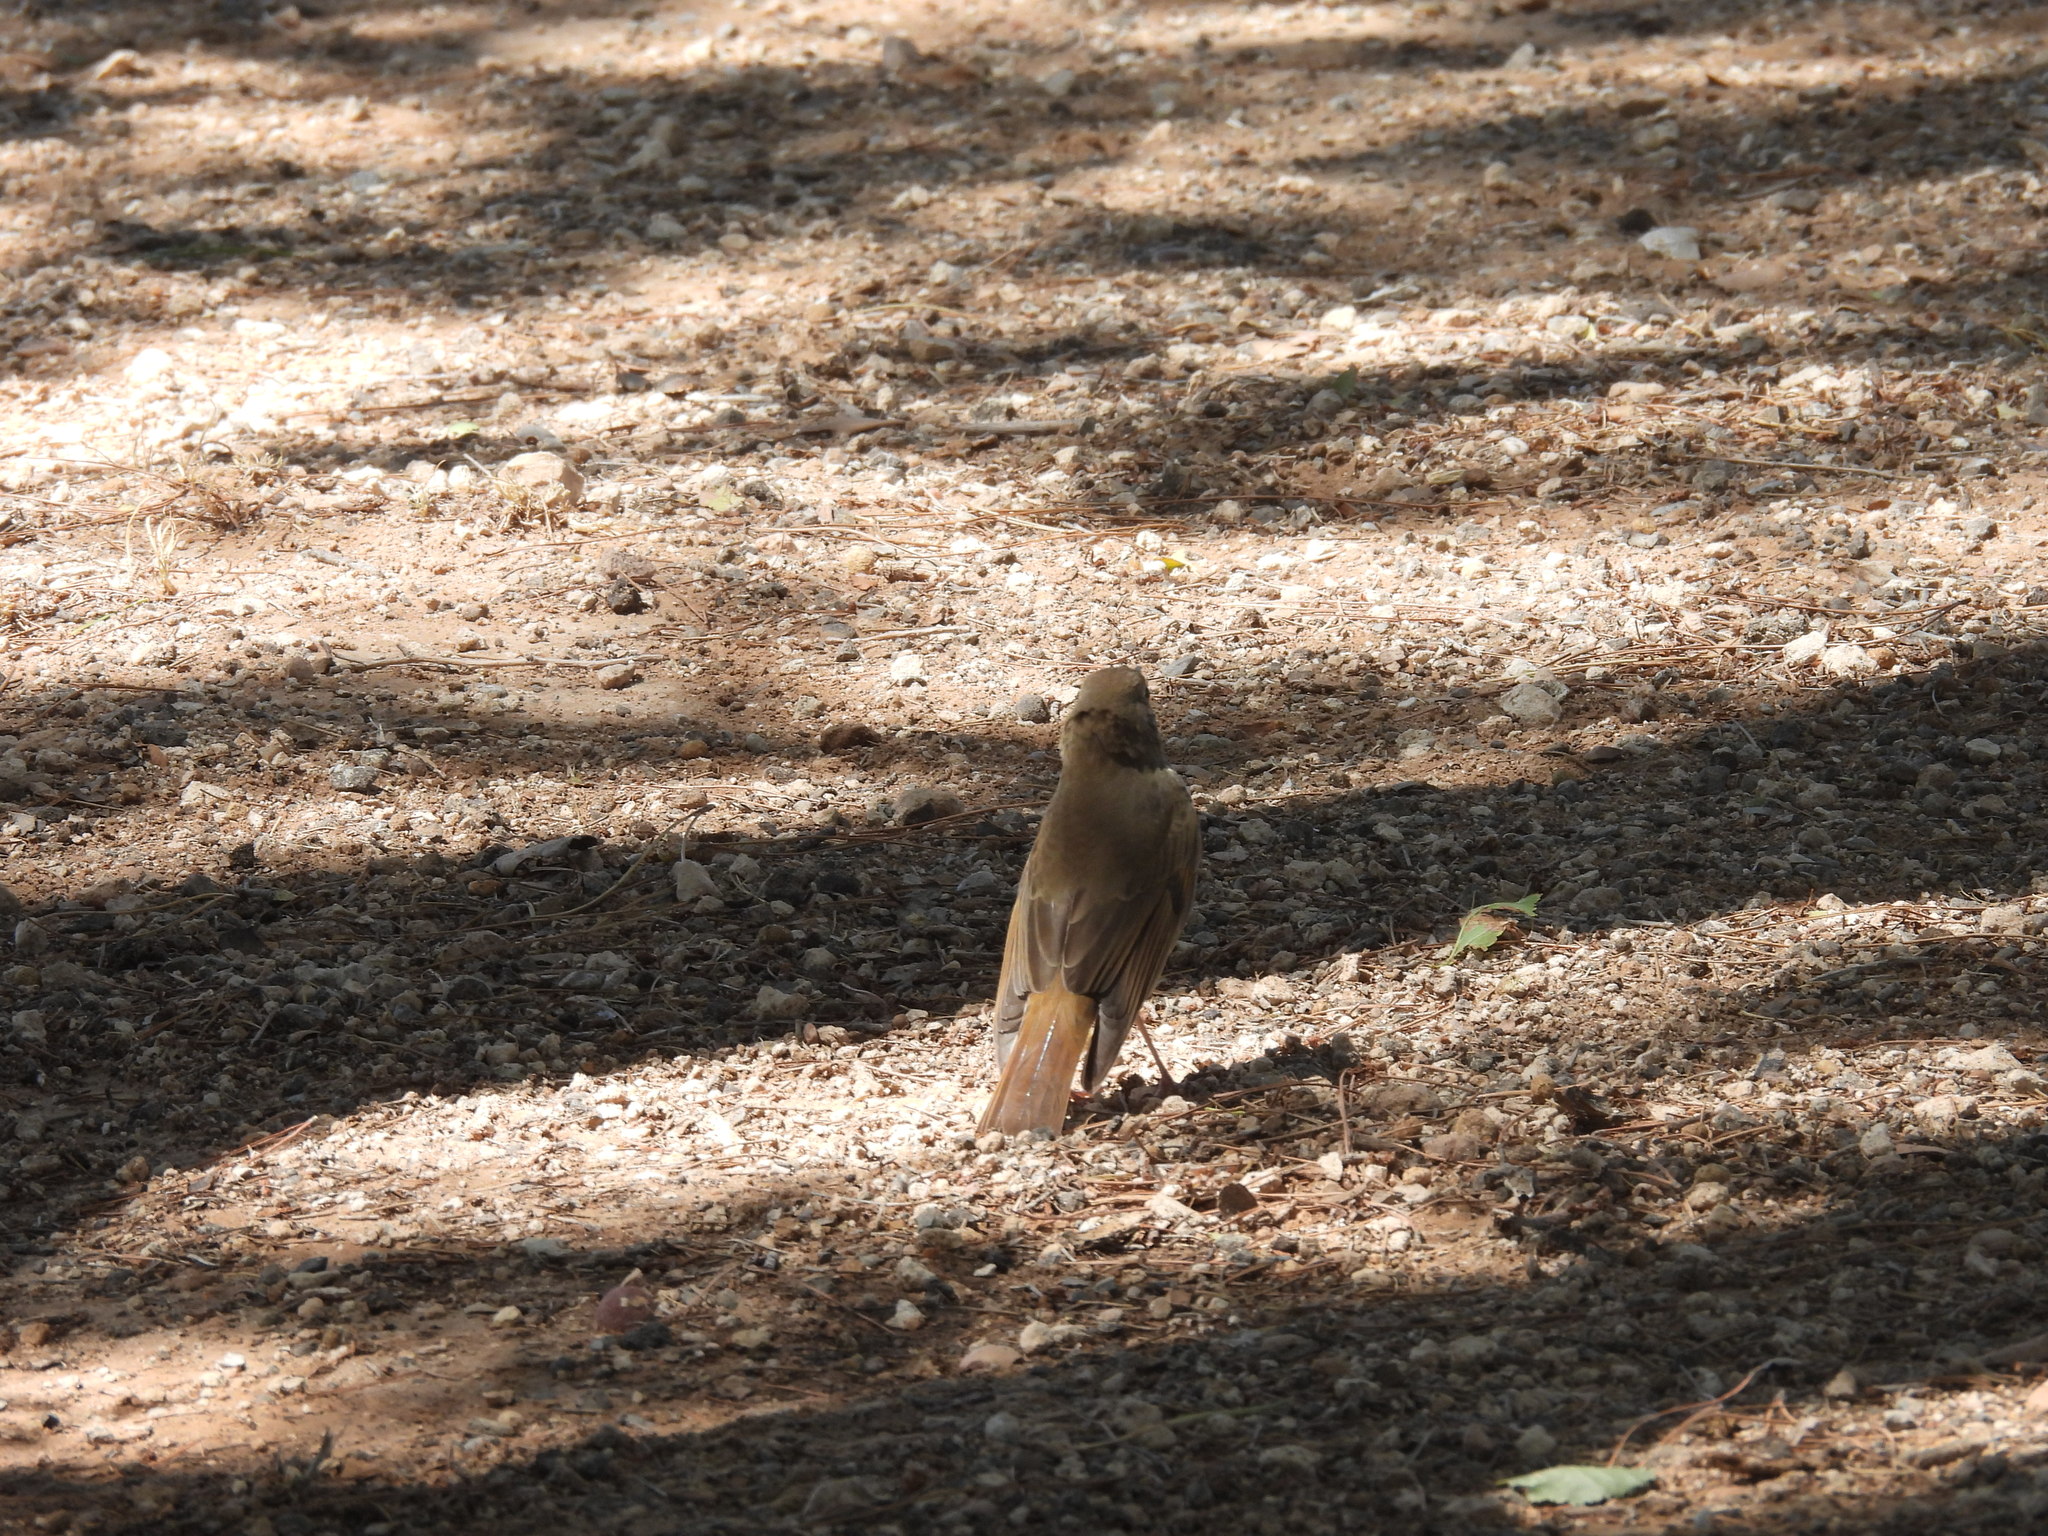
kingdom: Animalia
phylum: Chordata
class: Aves
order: Passeriformes
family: Turdidae
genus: Catharus
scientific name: Catharus guttatus
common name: Hermit thrush
